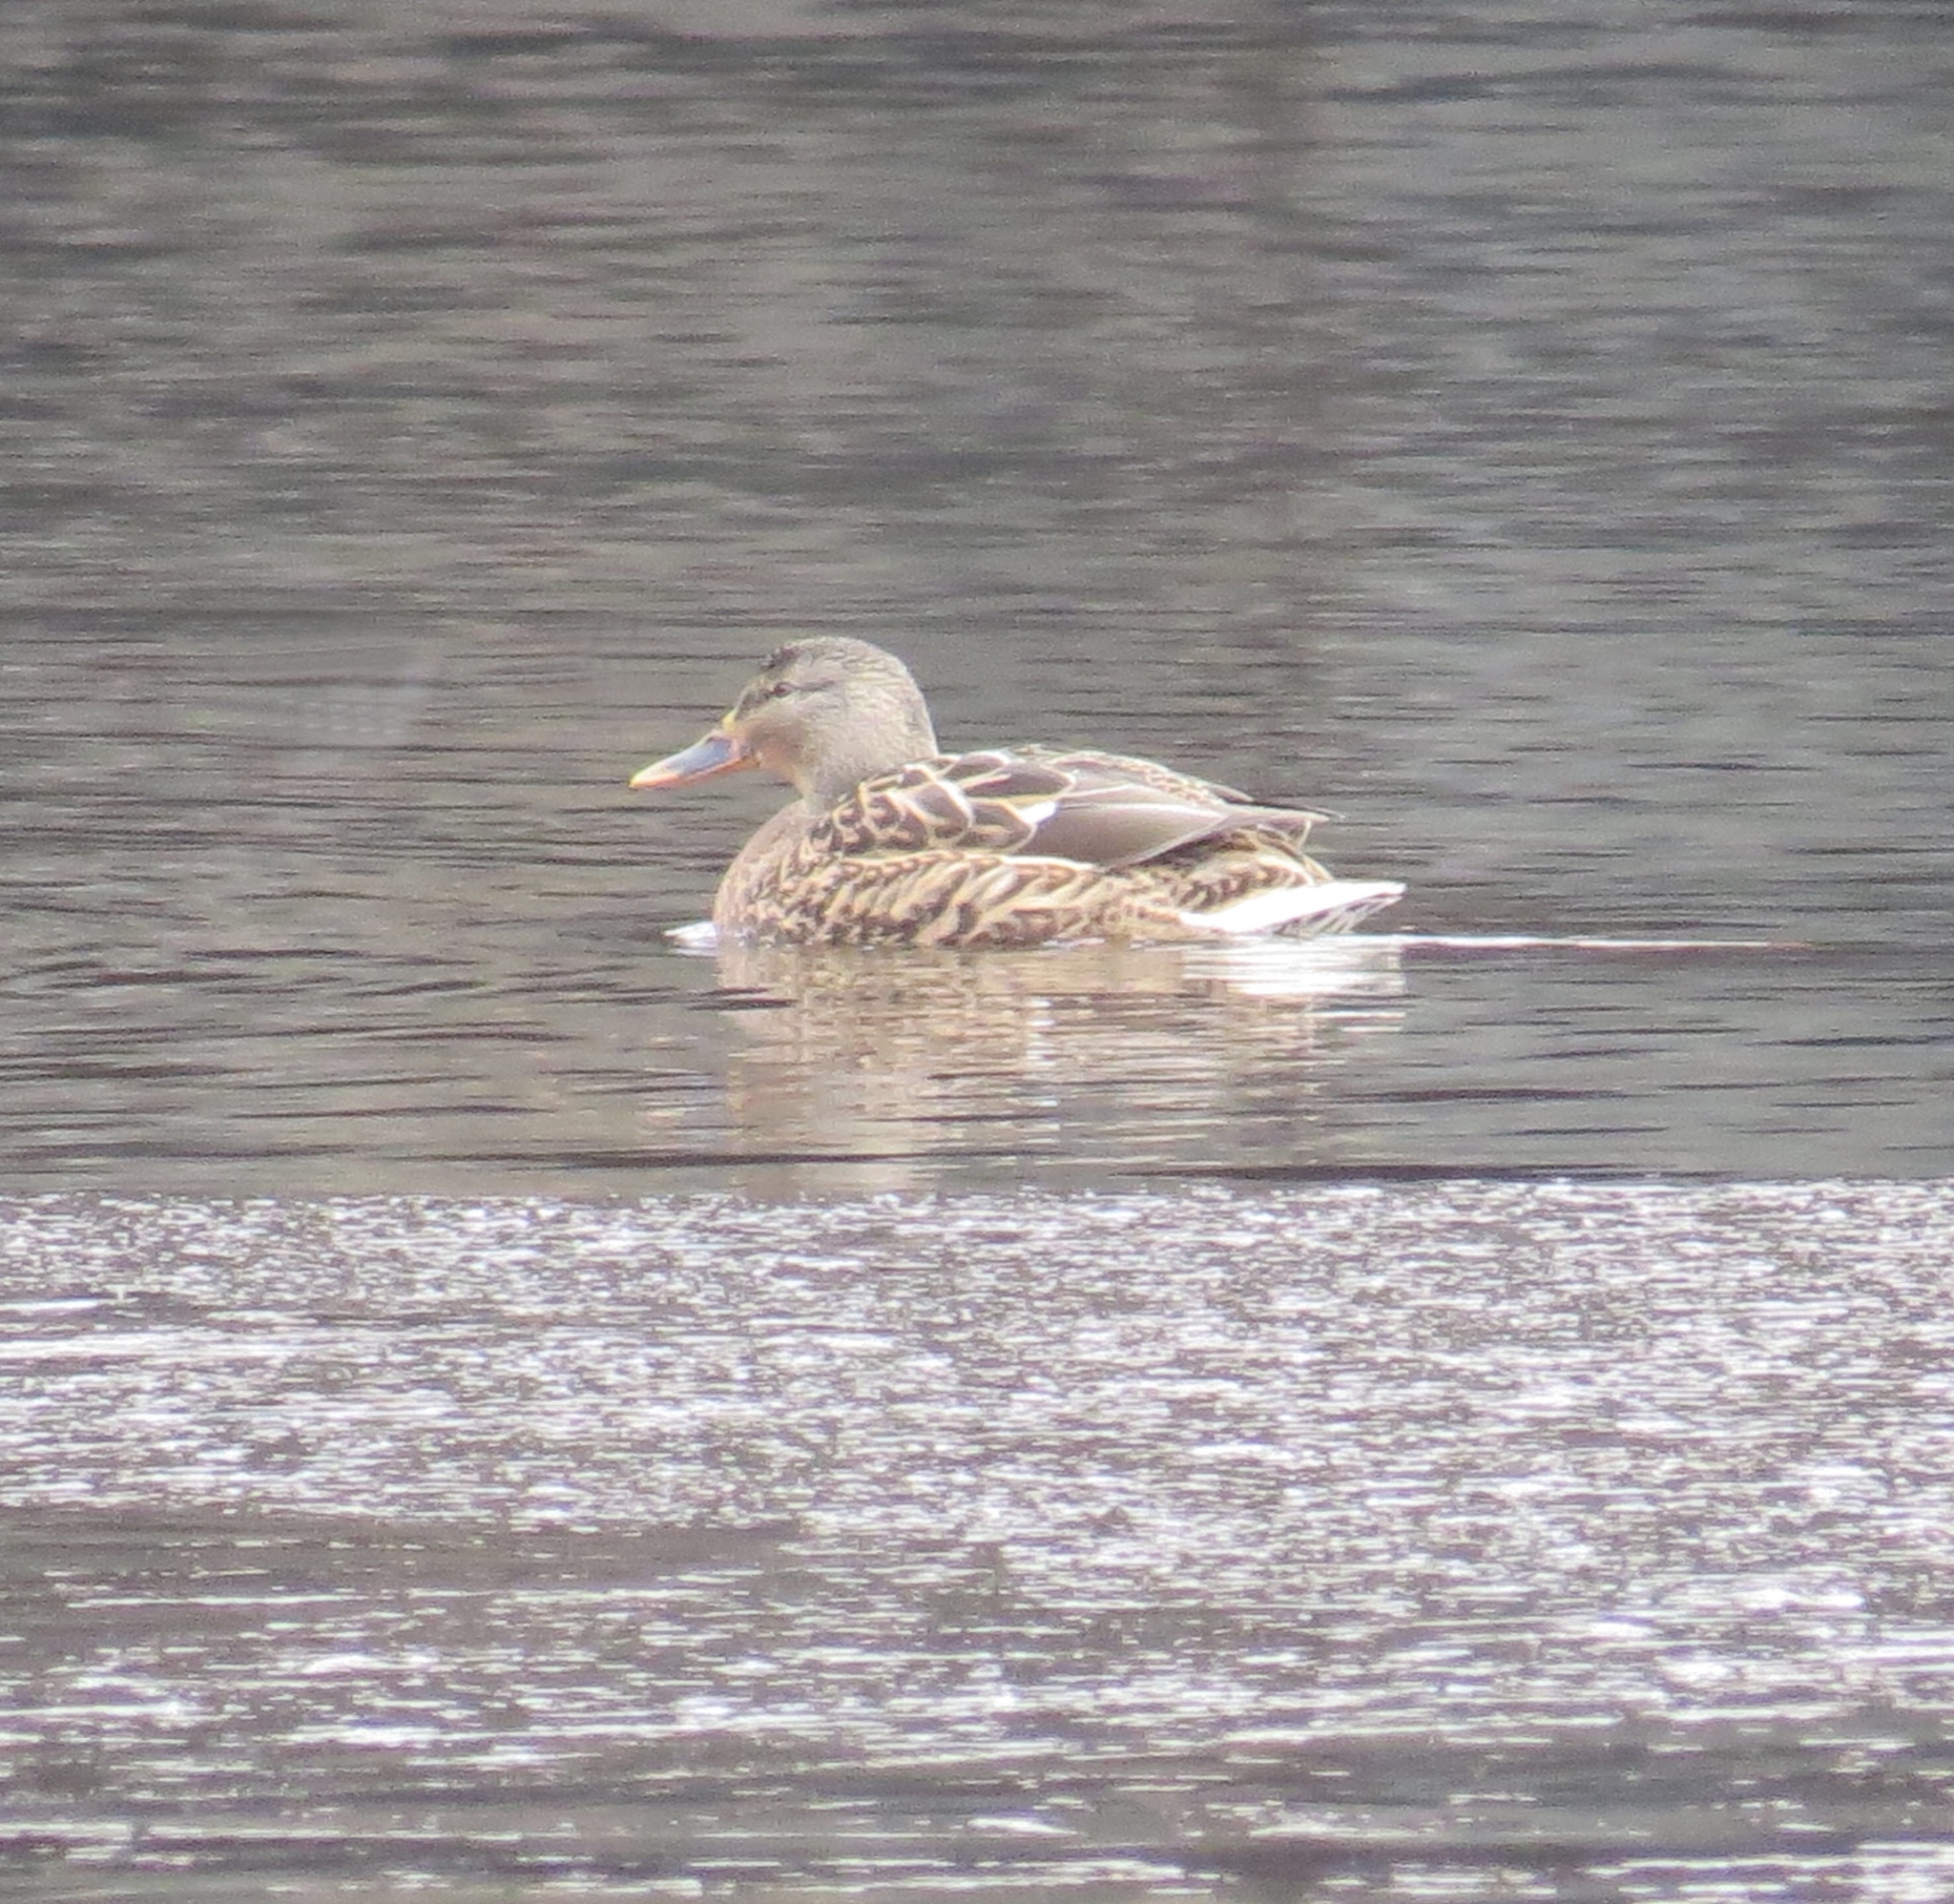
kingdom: Animalia
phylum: Chordata
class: Aves
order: Anseriformes
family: Anatidae
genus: Anas
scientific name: Anas platyrhynchos
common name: Mallard
